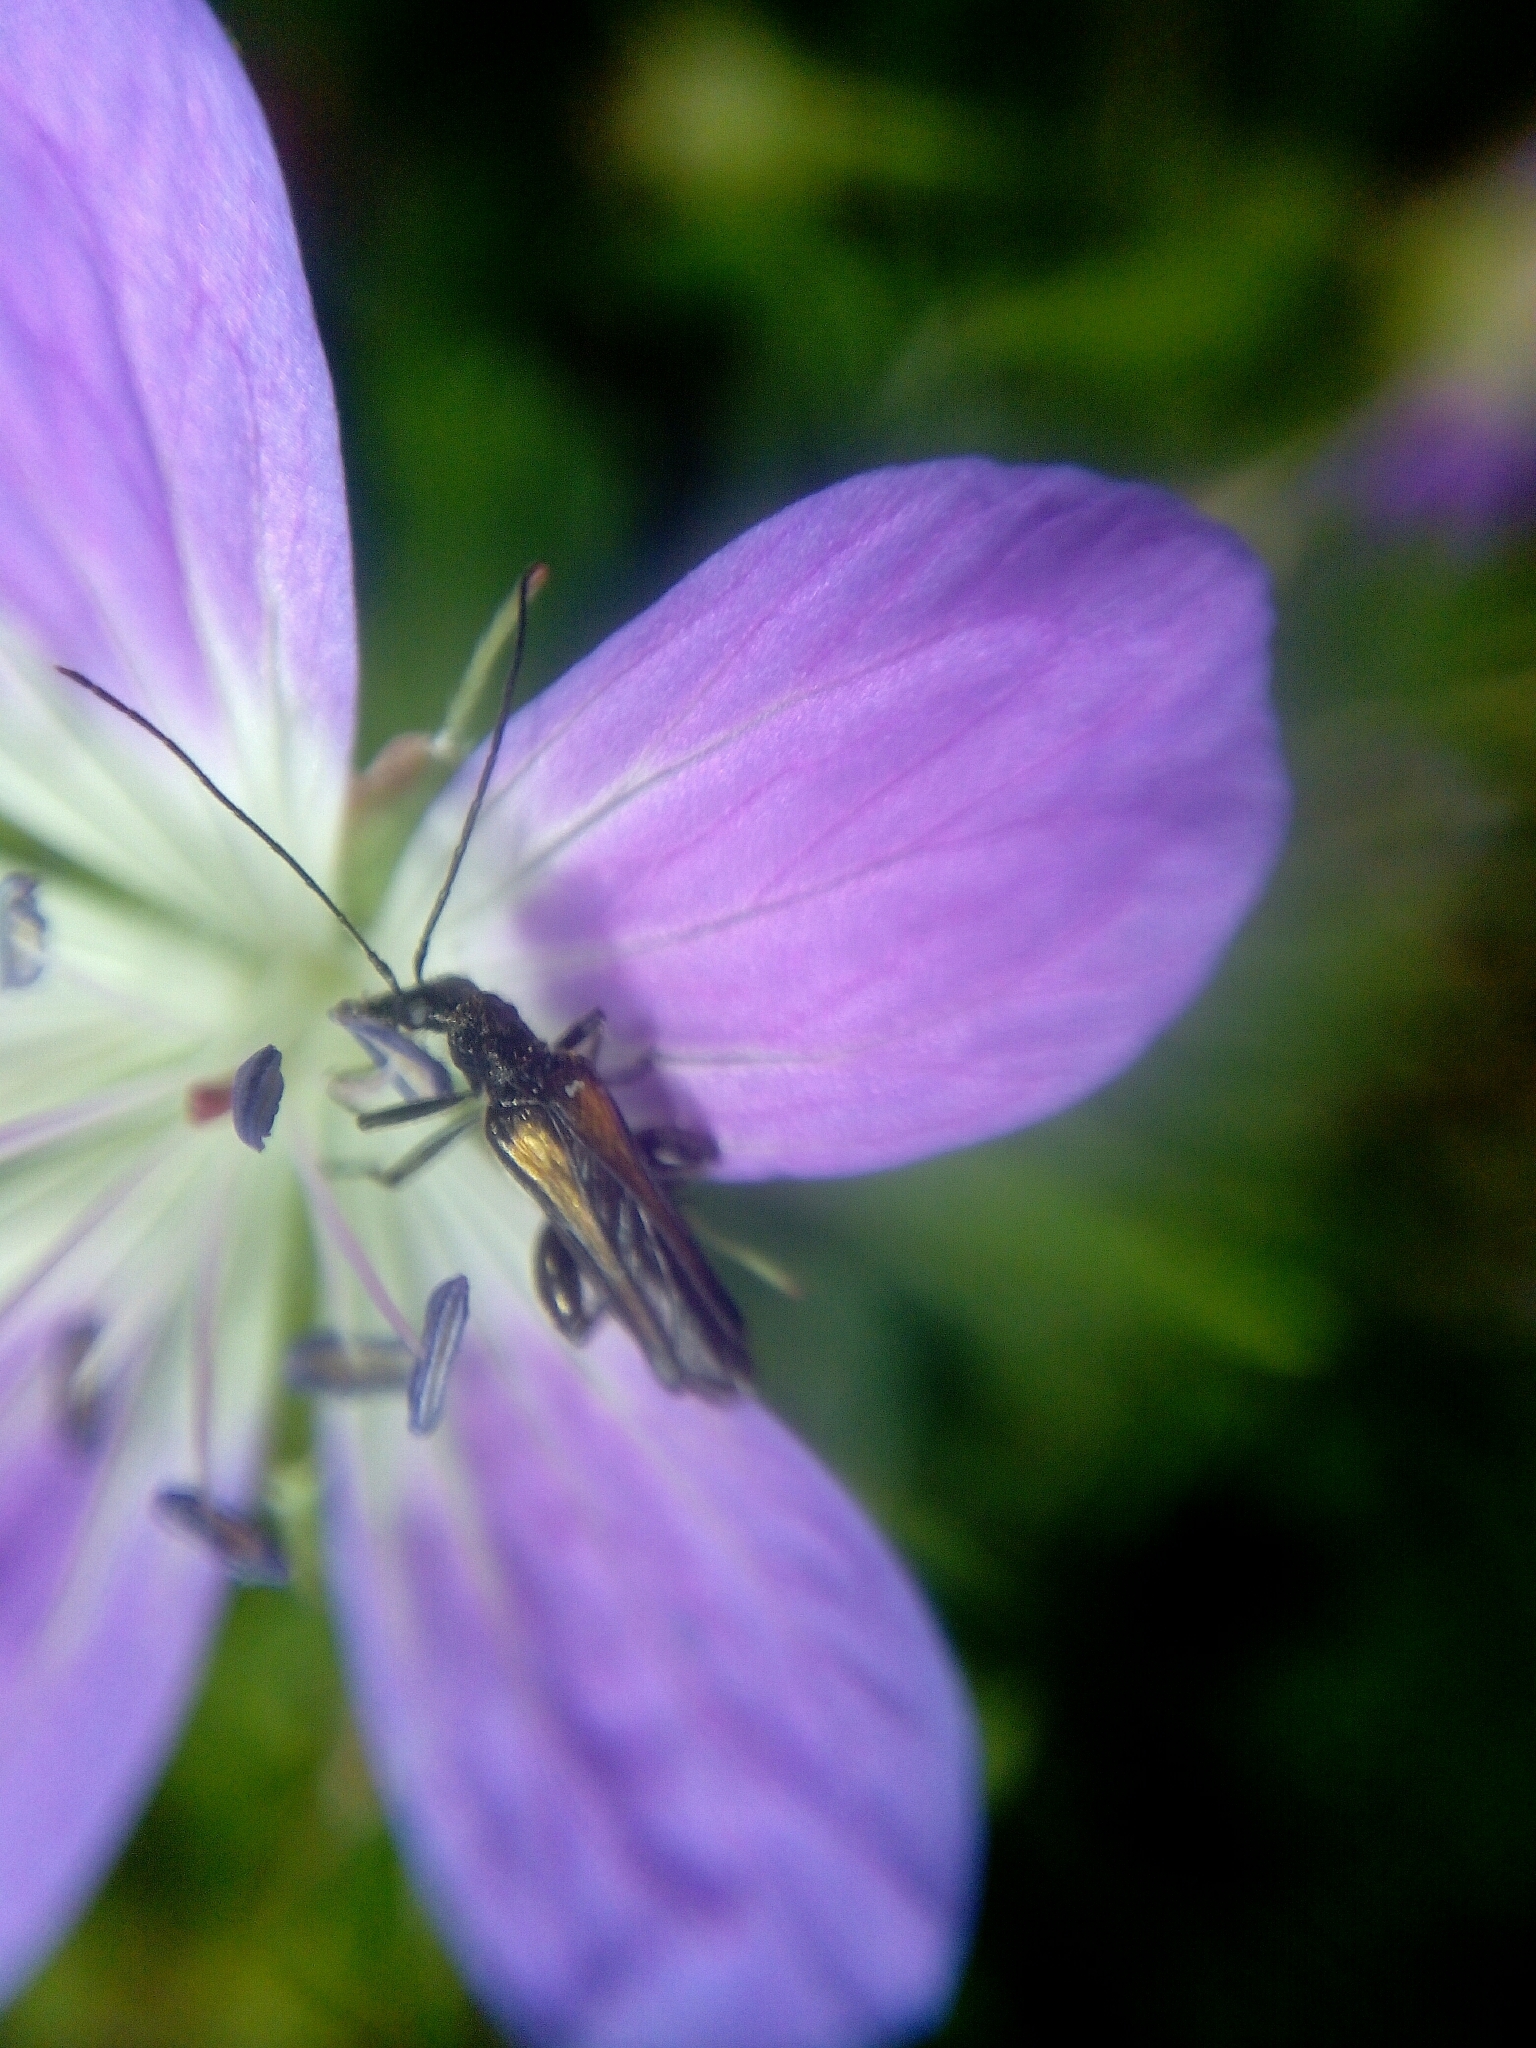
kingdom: Animalia
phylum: Arthropoda
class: Insecta
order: Coleoptera
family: Oedemeridae
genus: Oedemera
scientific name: Oedemera pthysica
